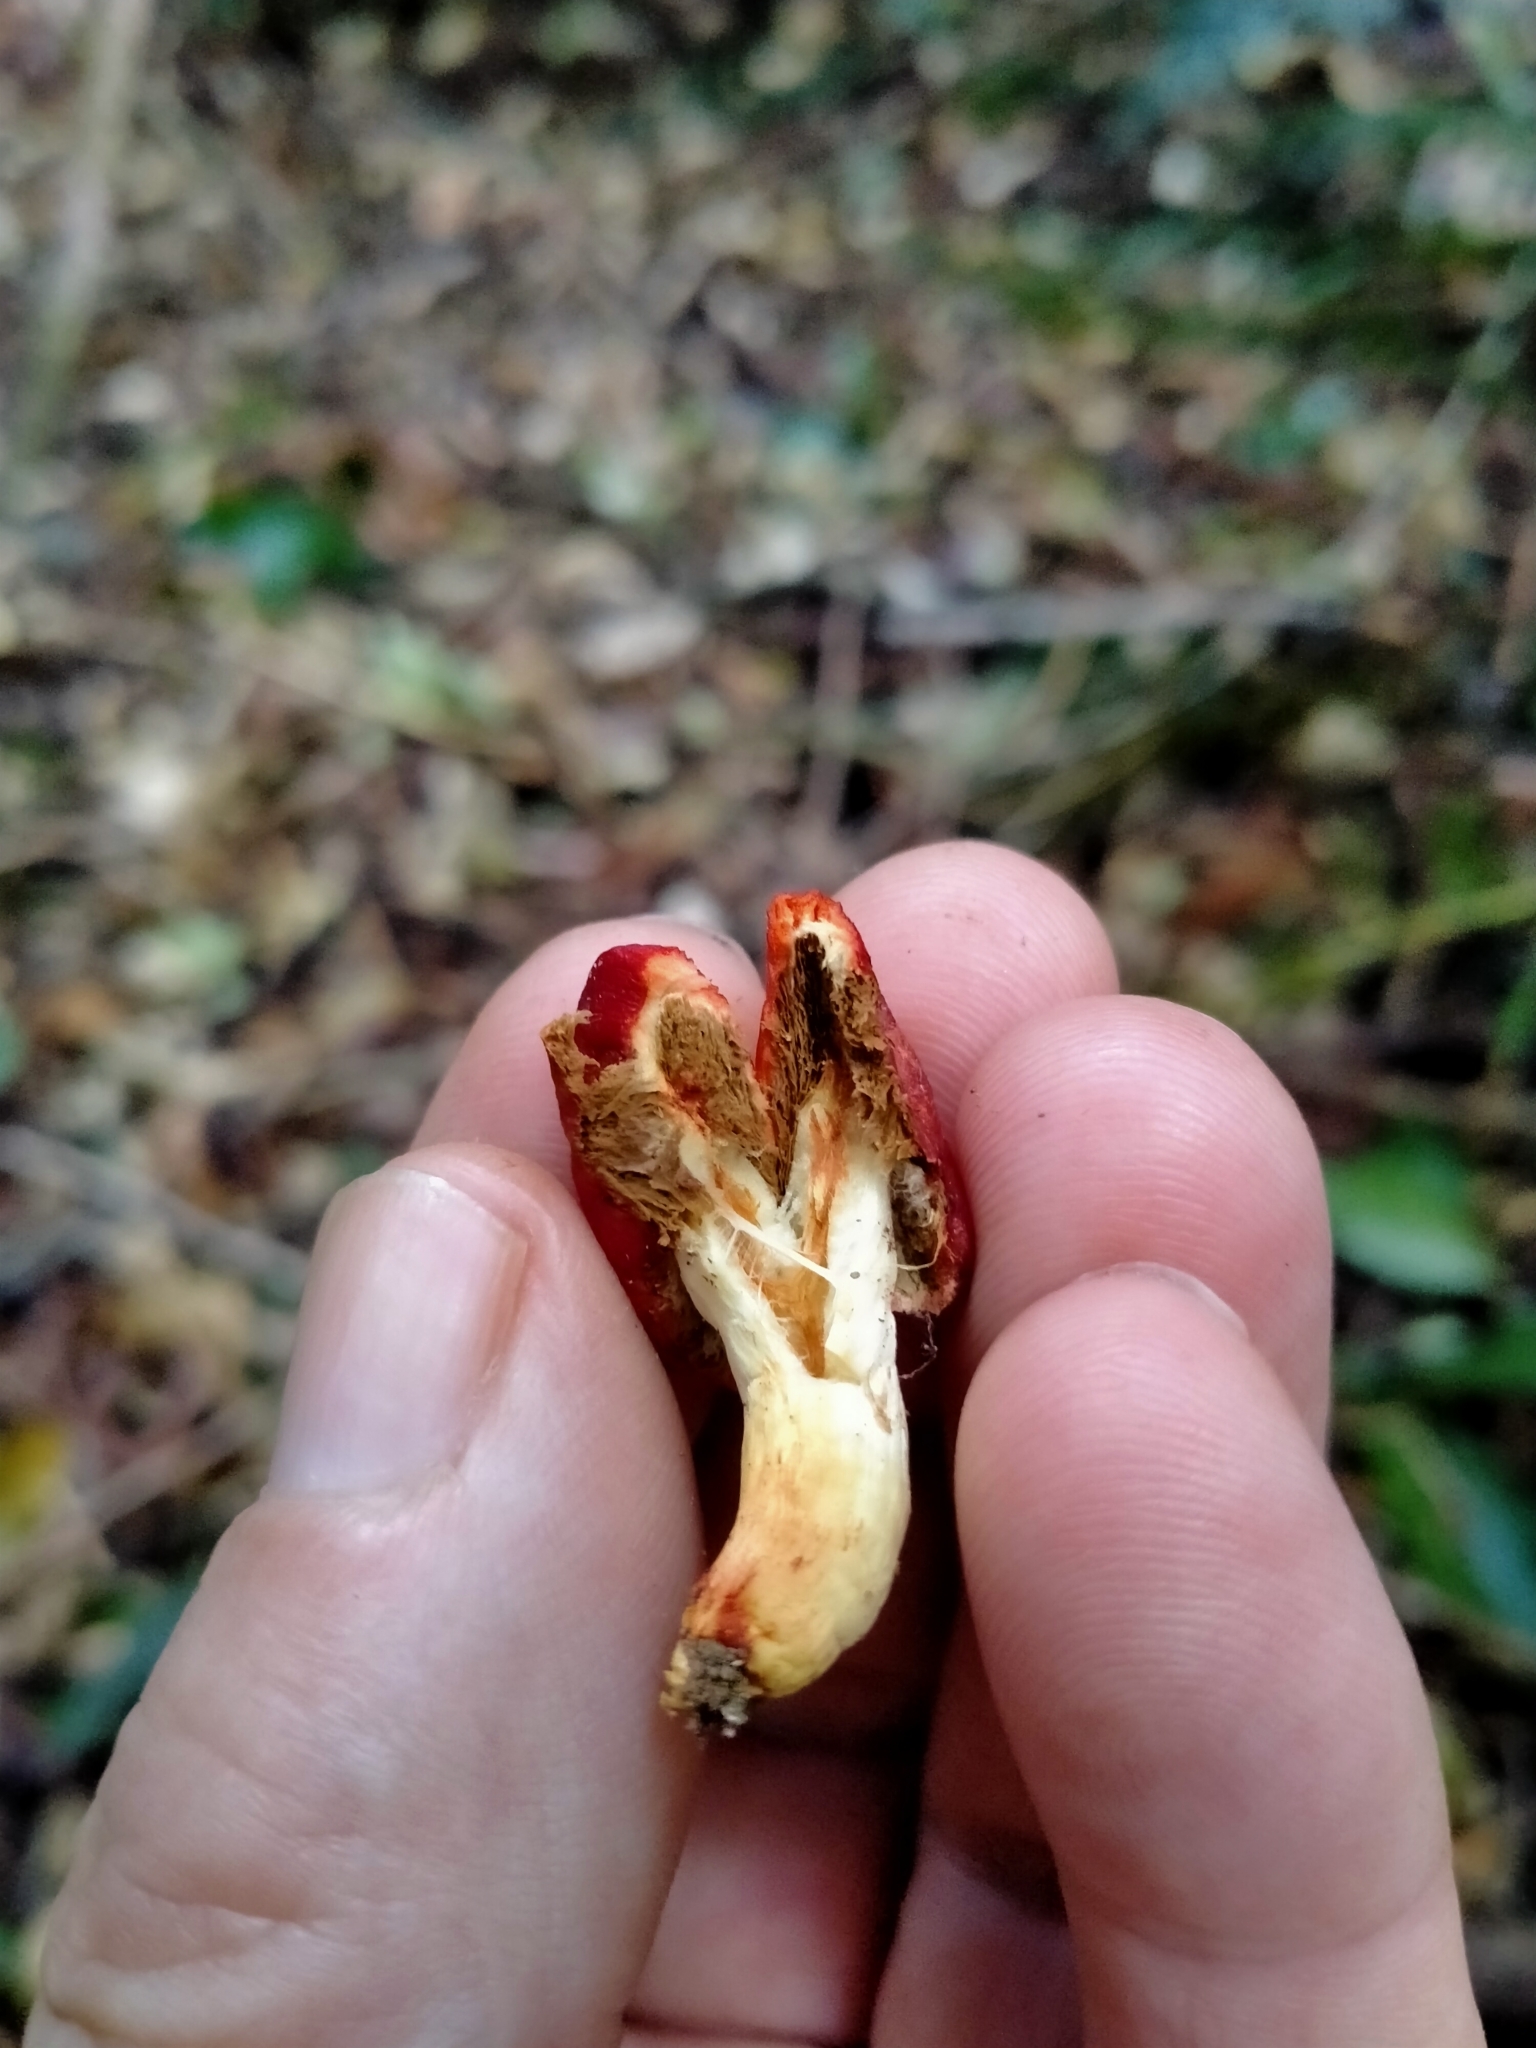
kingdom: Fungi
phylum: Basidiomycota
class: Agaricomycetes
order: Agaricales
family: Strophariaceae
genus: Leratiomyces
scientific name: Leratiomyces erythrocephalus
